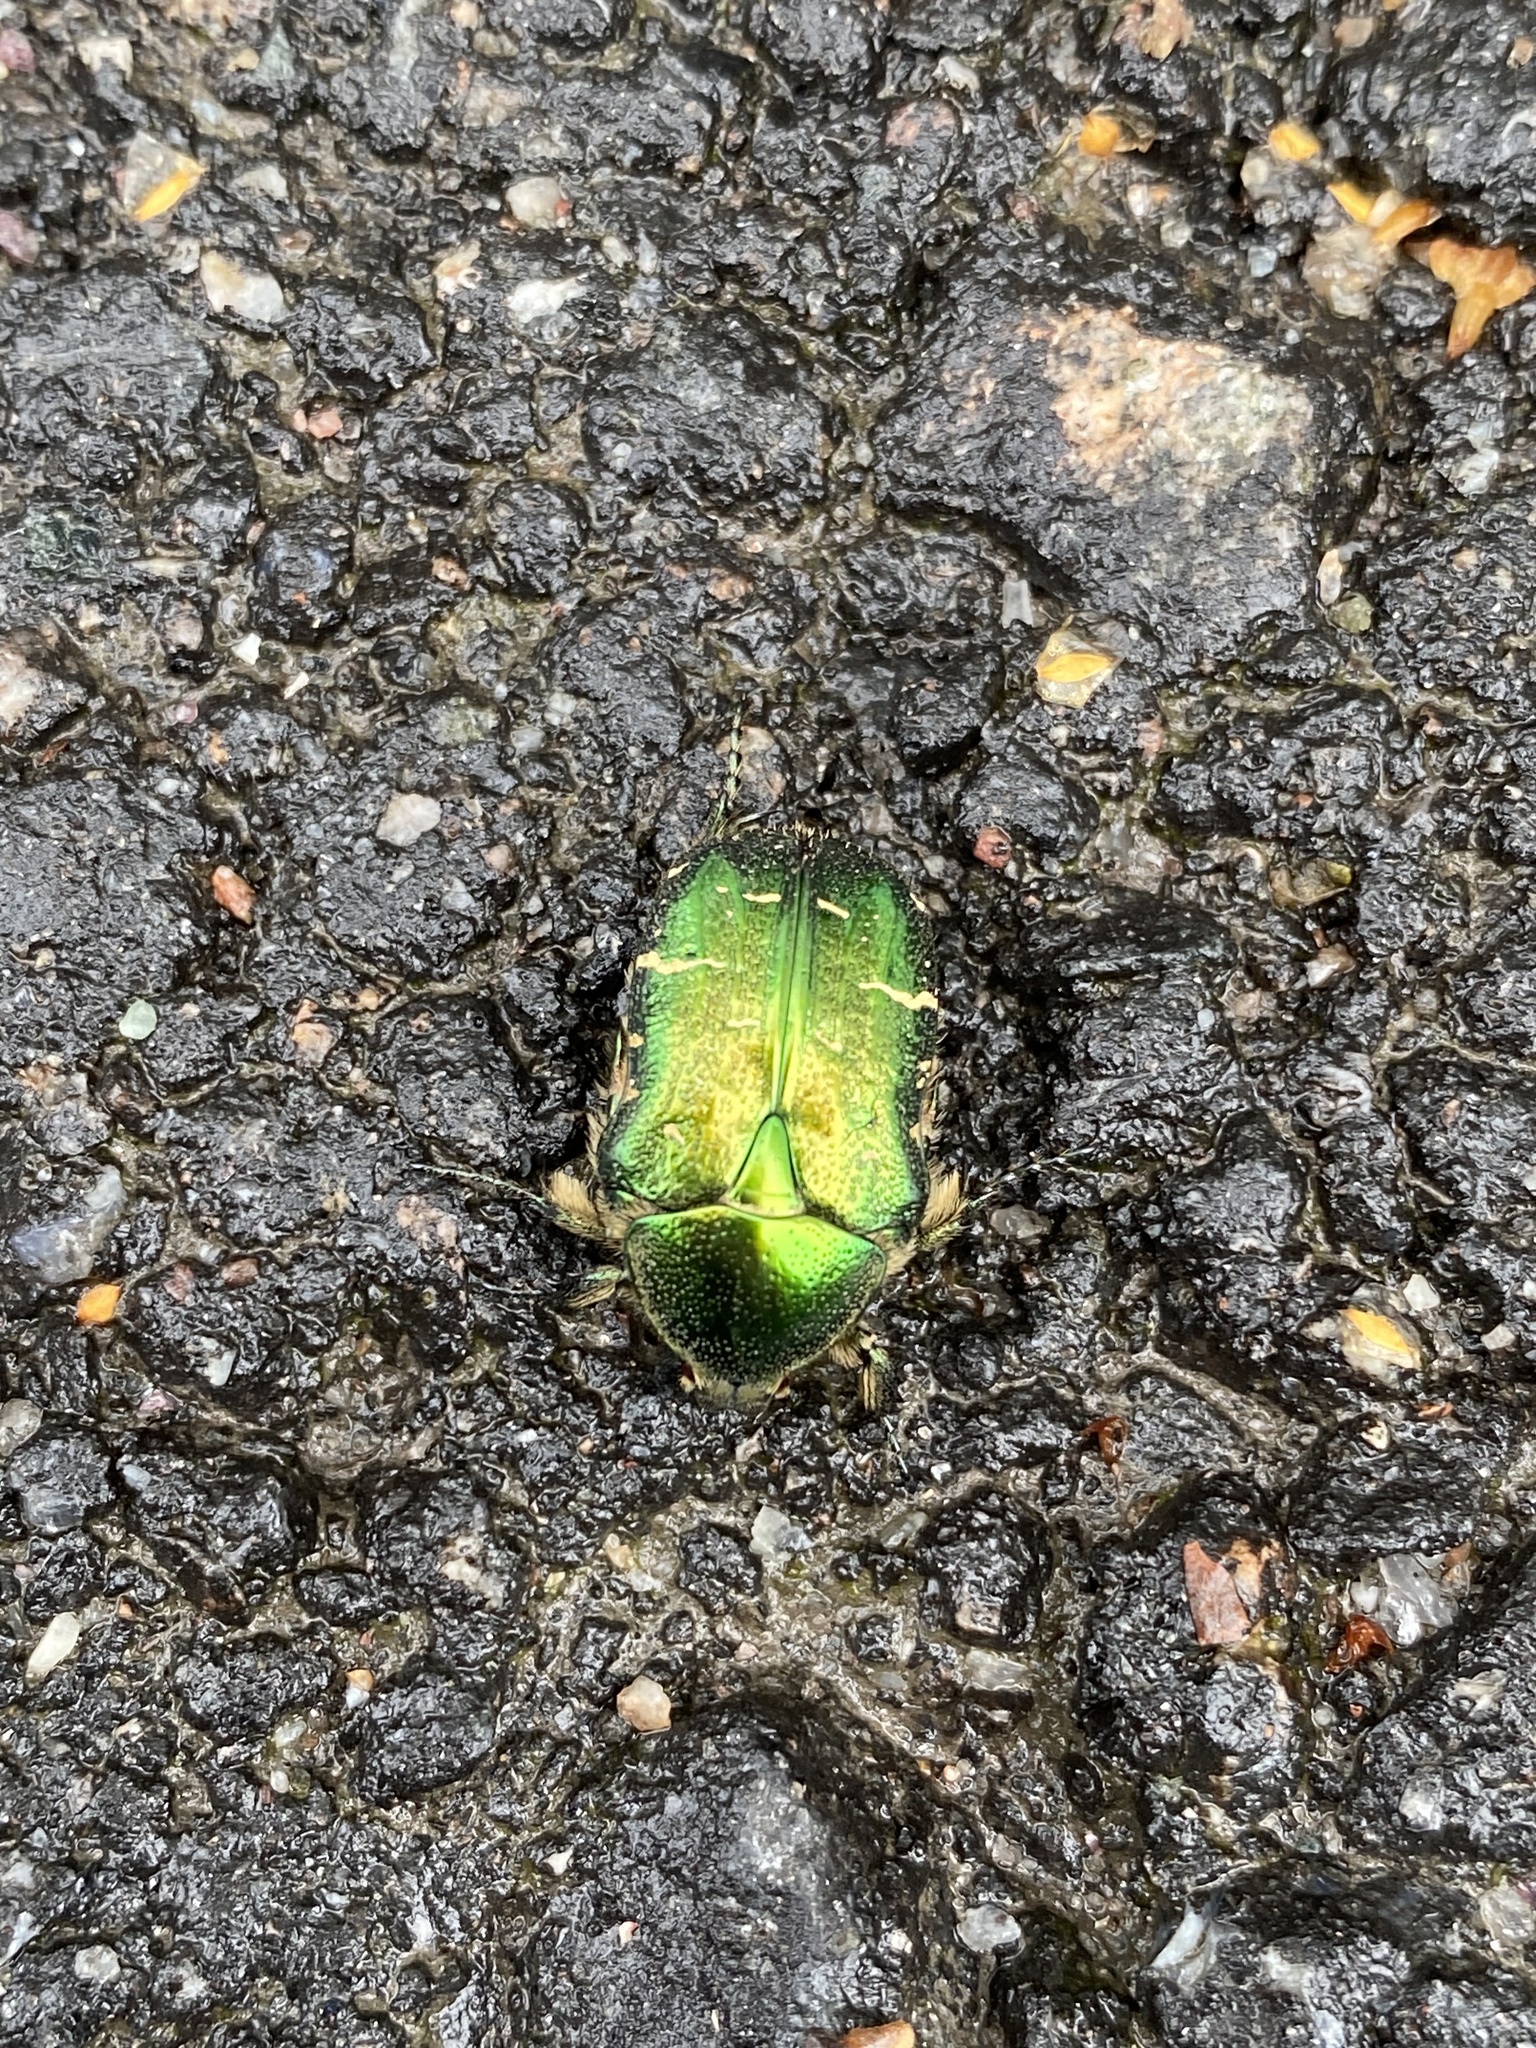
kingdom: Animalia
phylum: Arthropoda
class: Insecta
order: Coleoptera
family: Scarabaeidae
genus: Cetonia
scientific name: Cetonia aurata
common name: Rose chafer
